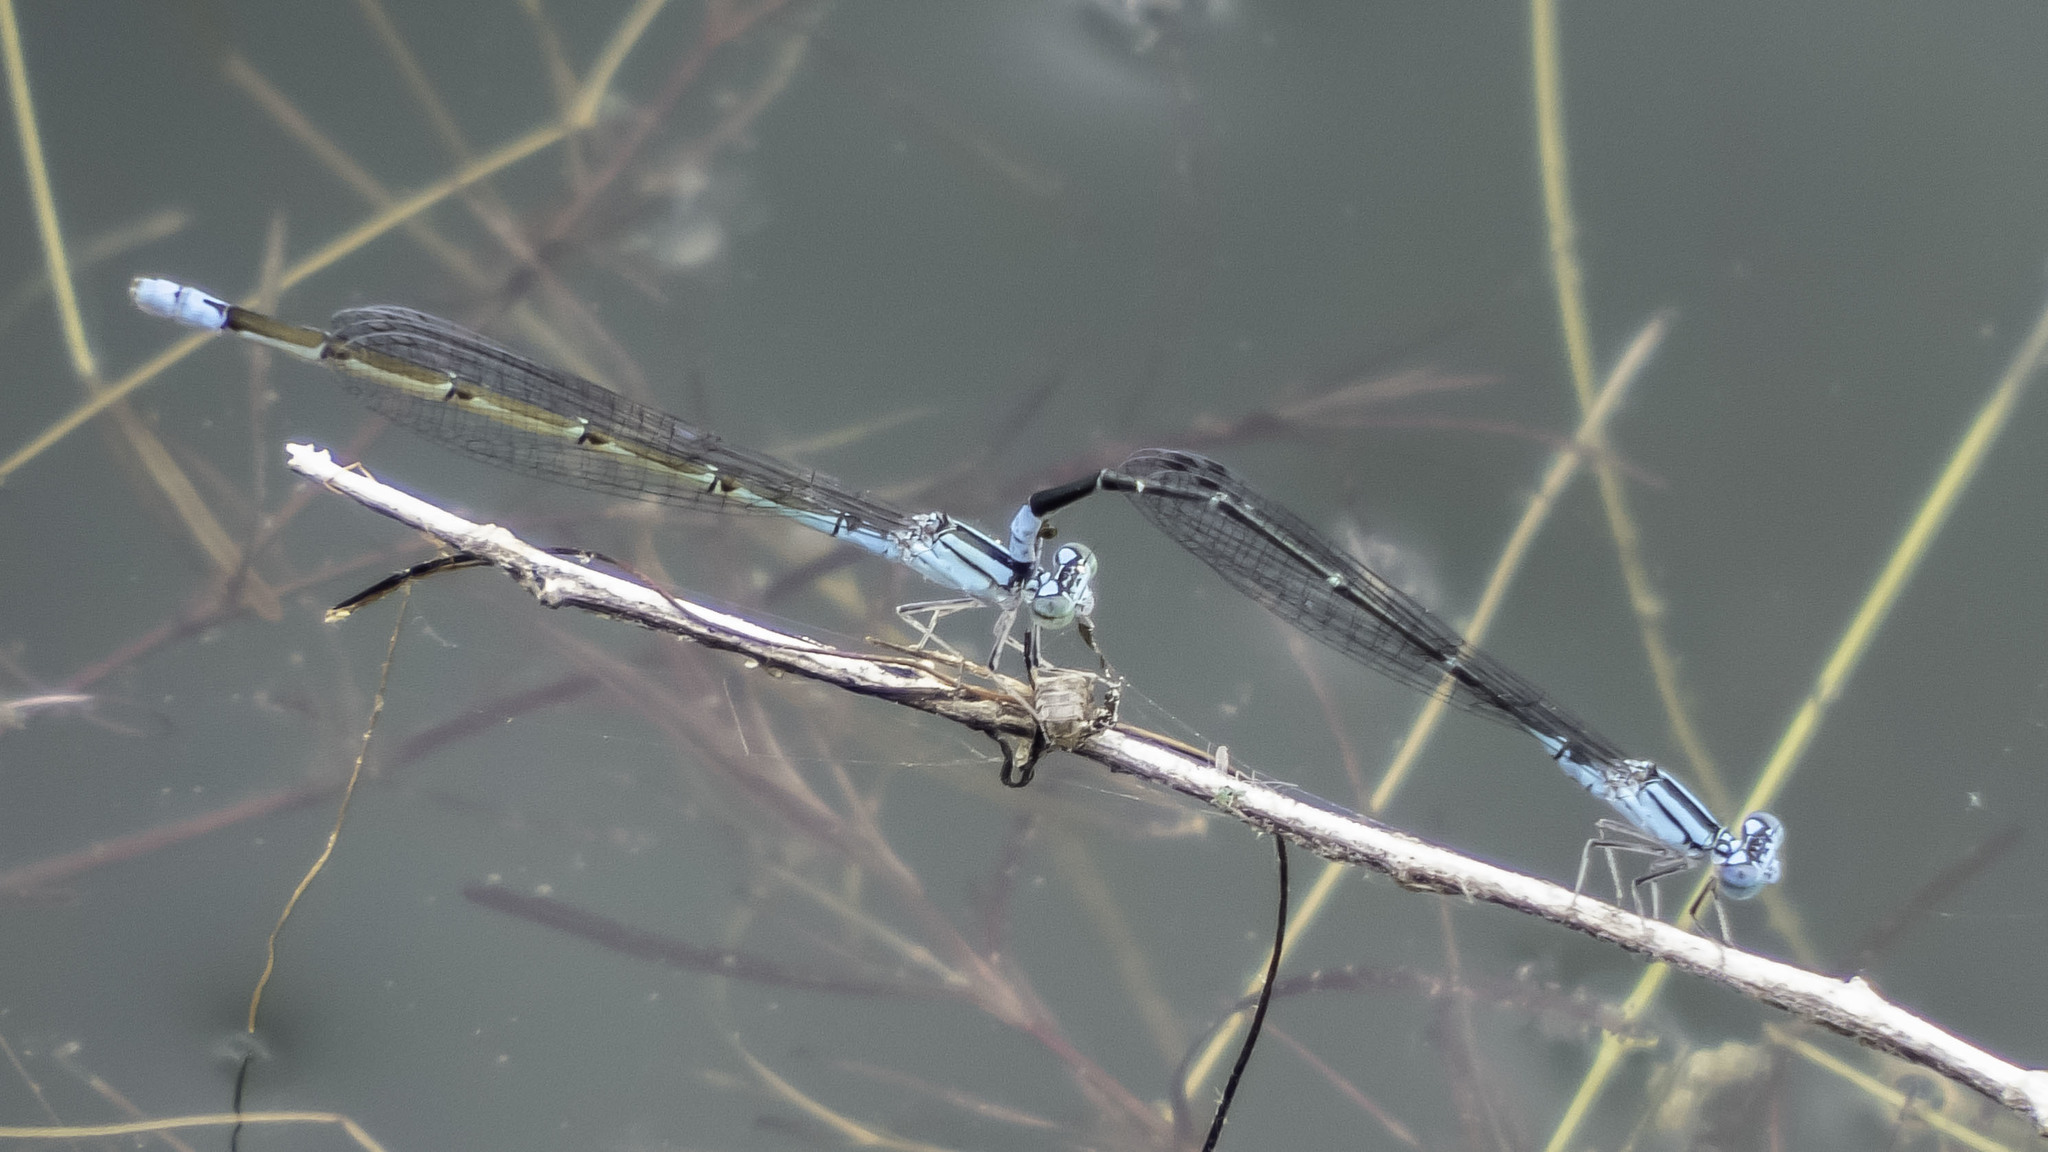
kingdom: Animalia
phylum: Arthropoda
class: Insecta
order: Odonata
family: Coenagrionidae
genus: Enallagma
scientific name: Enallagma traviatum
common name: Slender bluet
